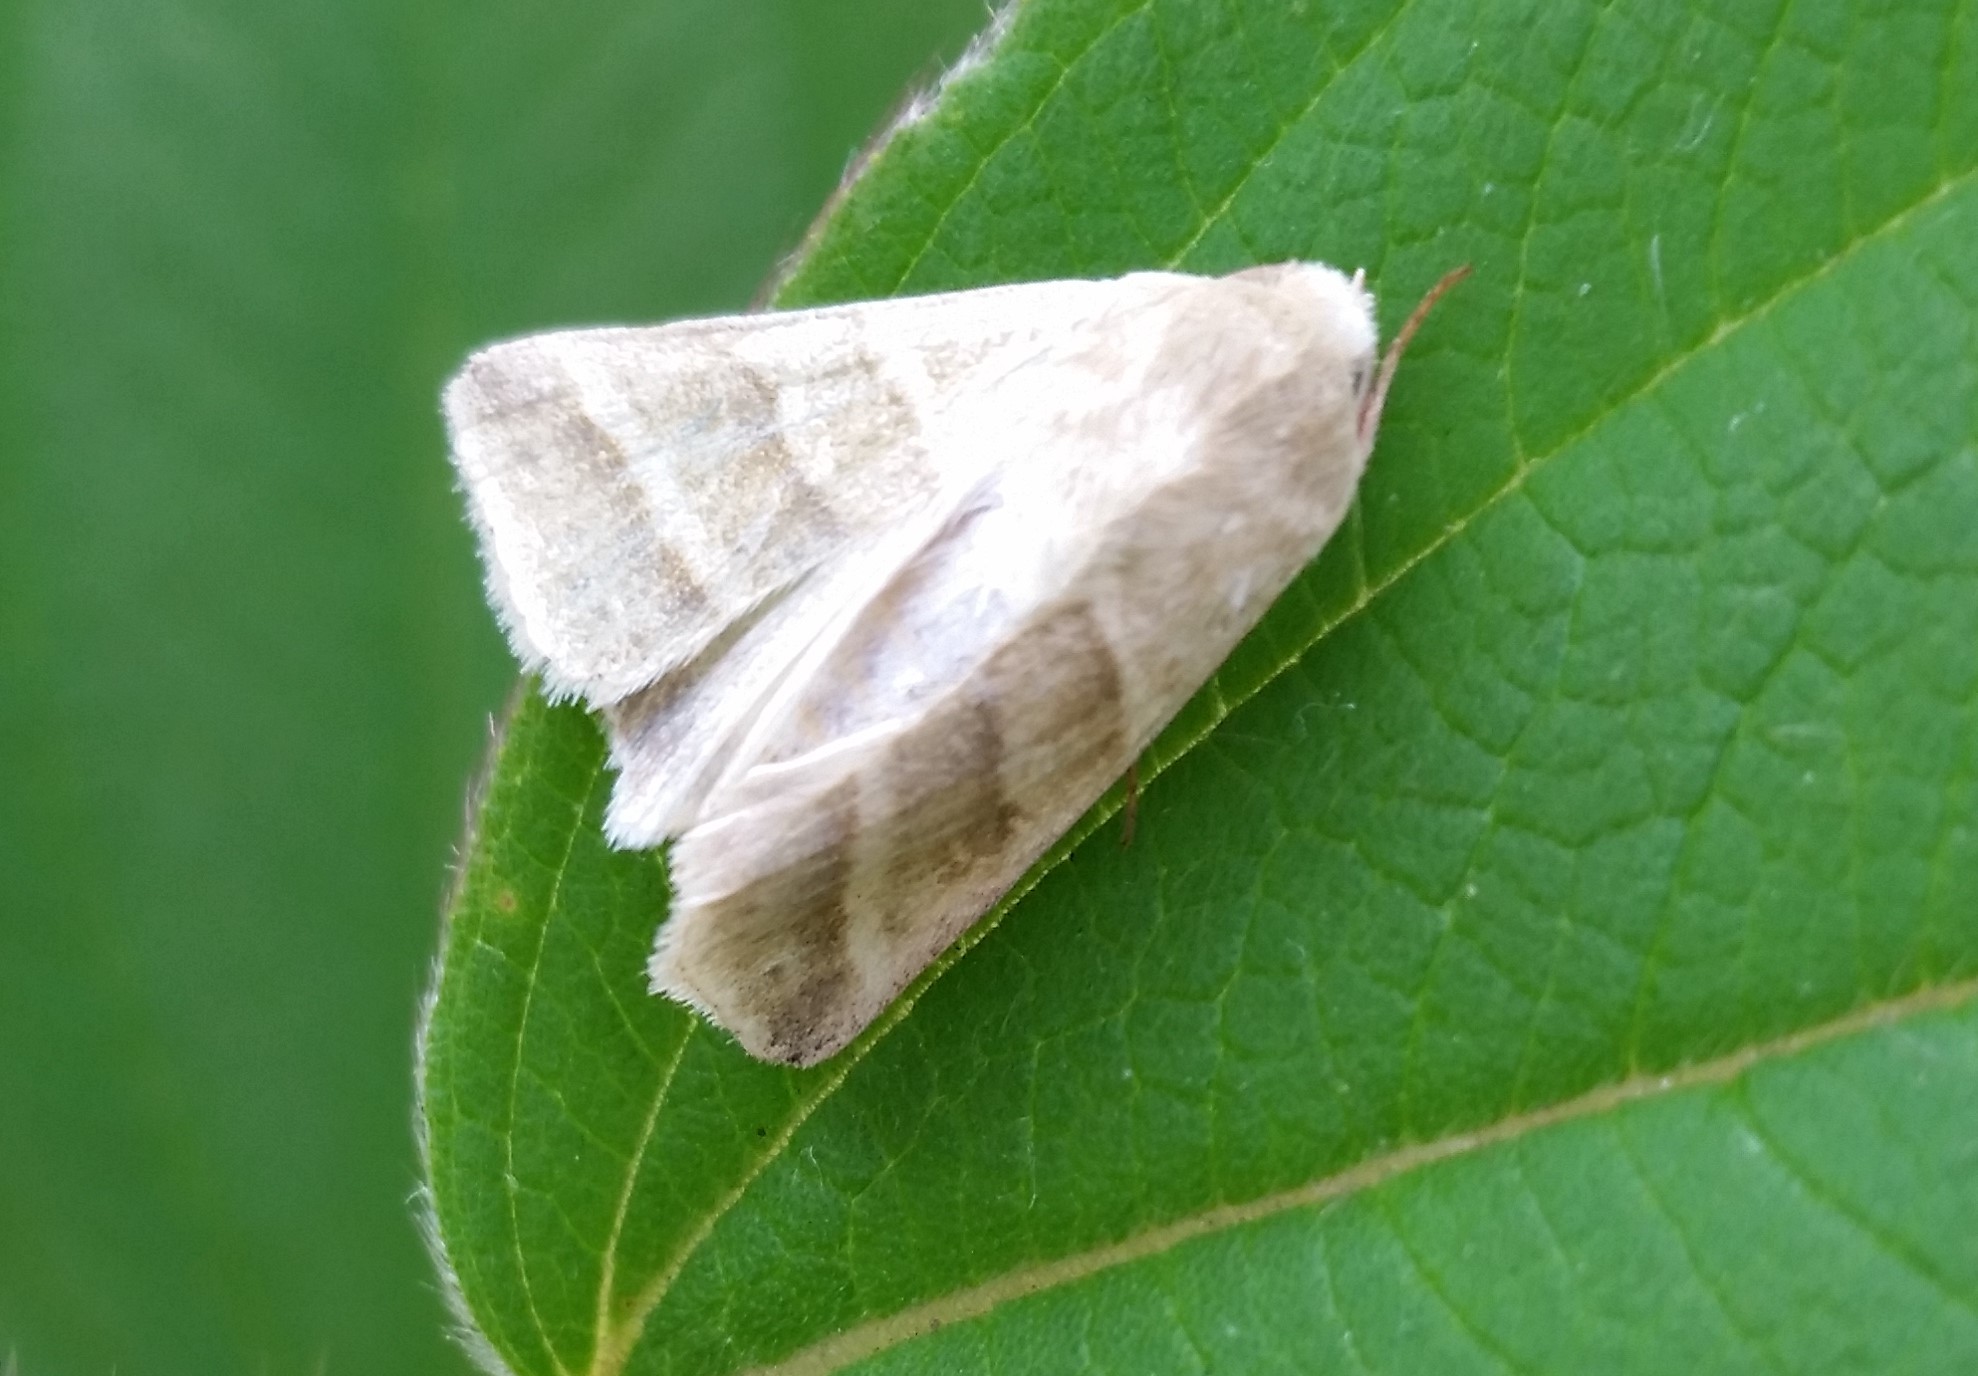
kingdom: Animalia
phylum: Arthropoda
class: Insecta
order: Lepidoptera
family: Noctuidae
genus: Chloridea
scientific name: Chloridea virescens
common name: Tobacco budworm
